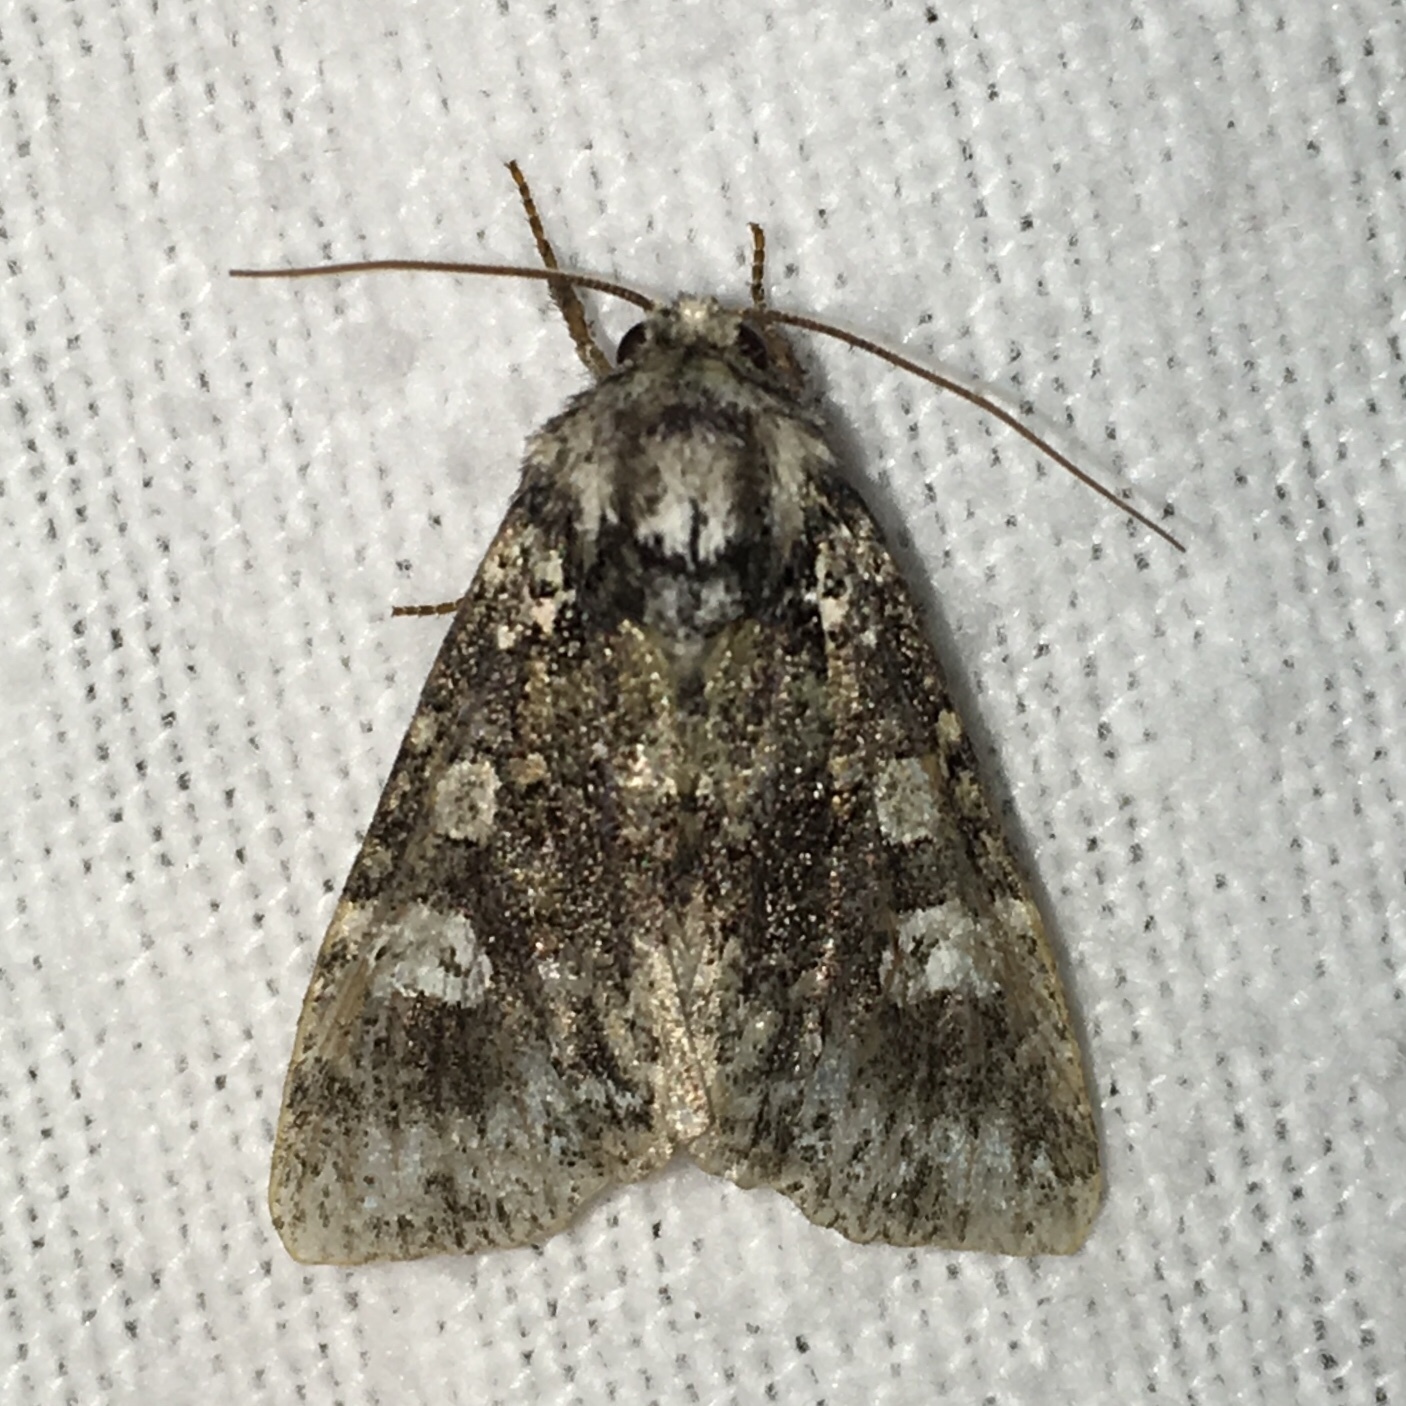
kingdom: Animalia
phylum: Arthropoda
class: Insecta
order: Lepidoptera
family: Noctuidae
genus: Melanchra
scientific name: Melanchra adjuncta
